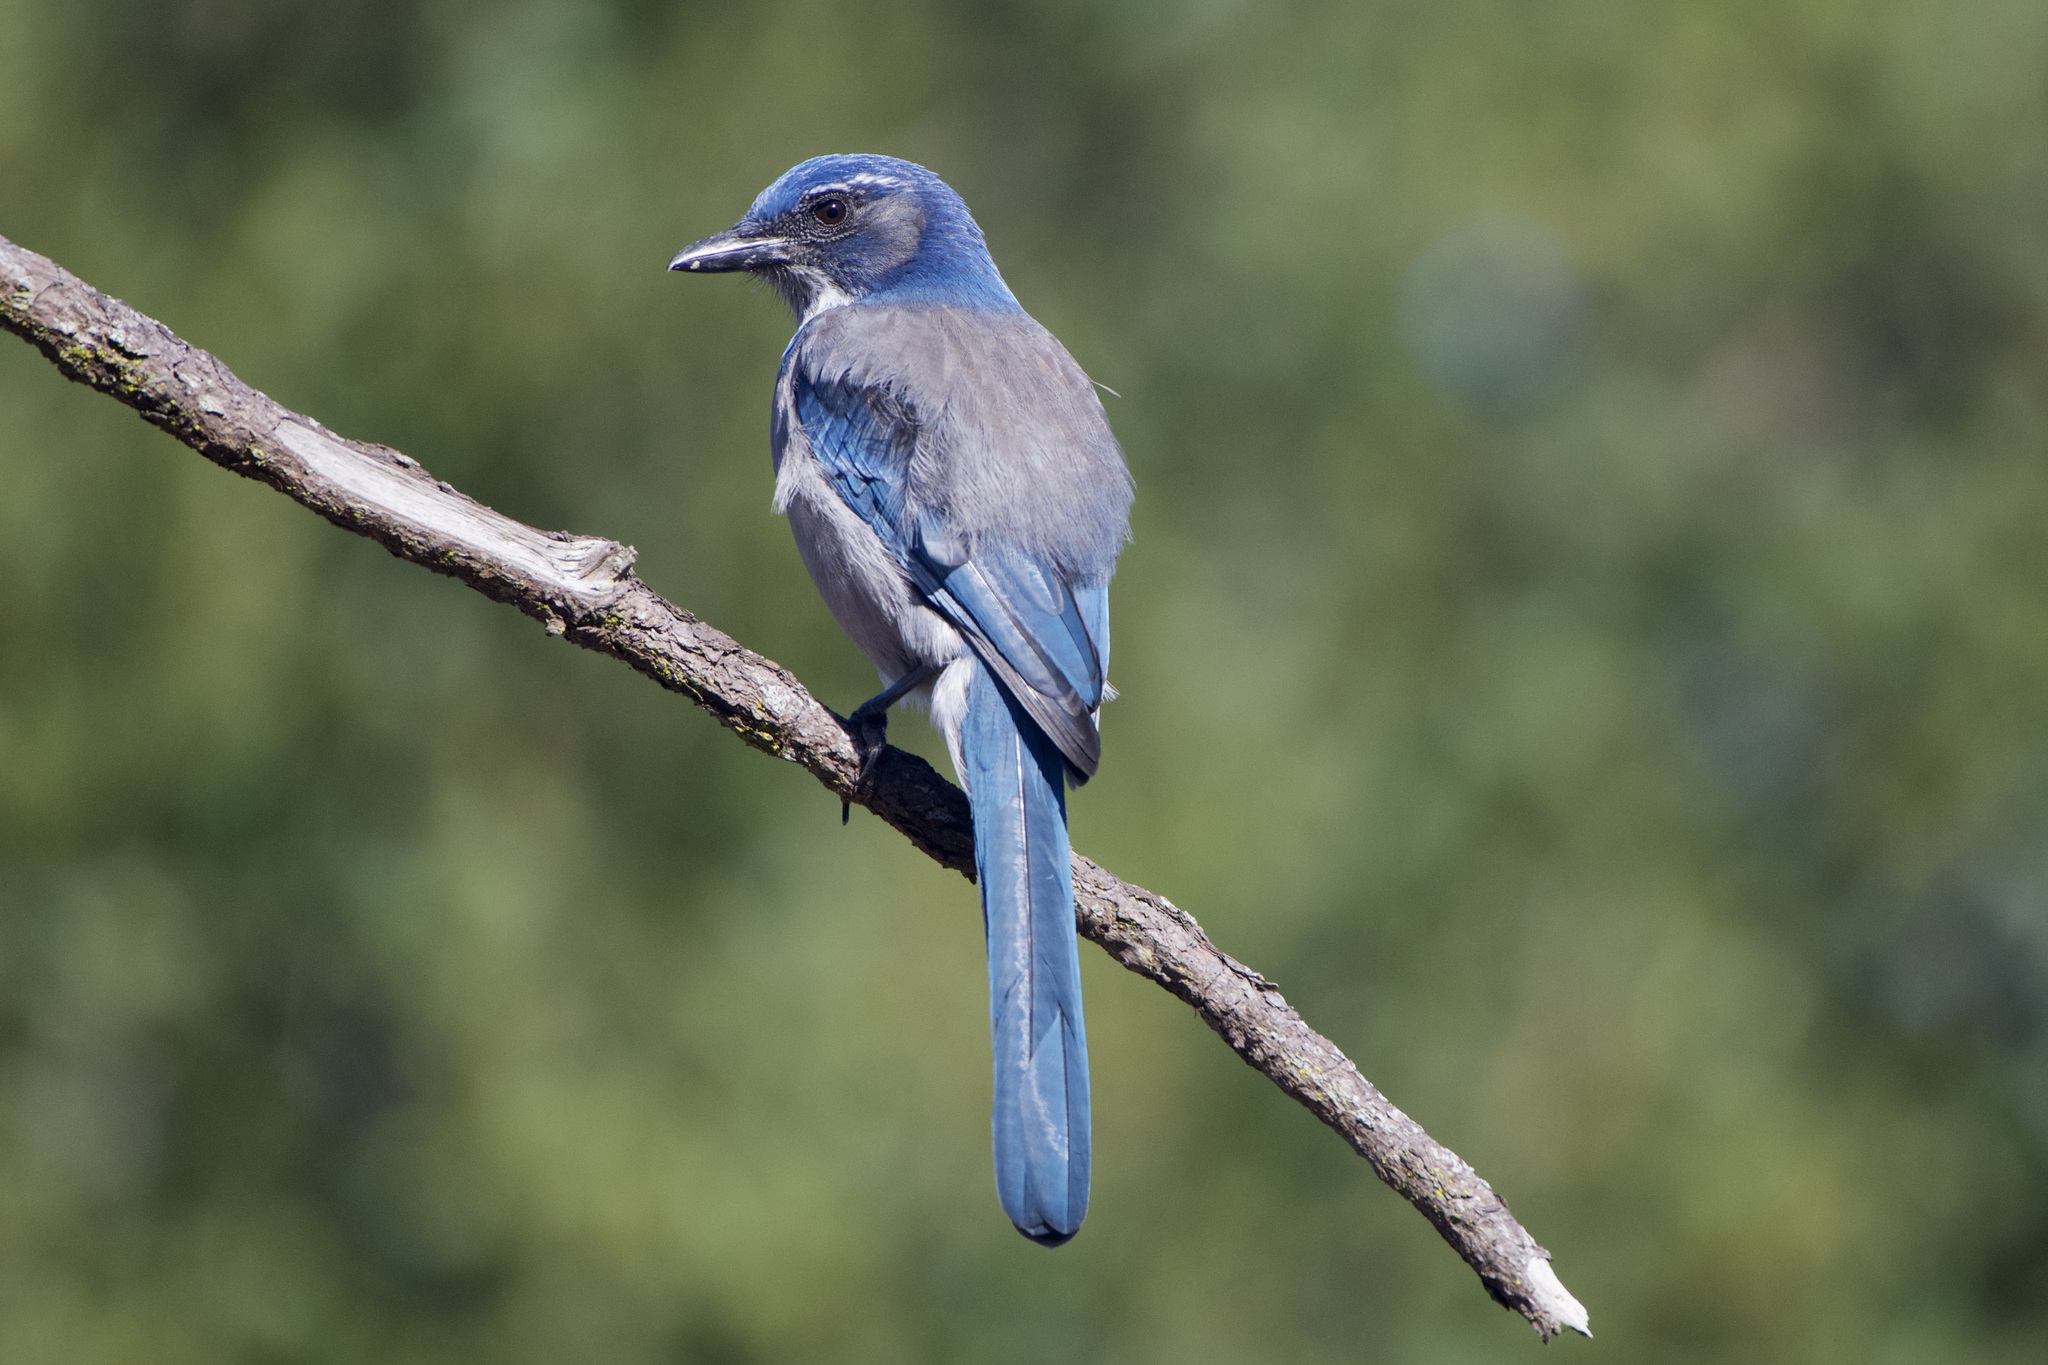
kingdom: Animalia
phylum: Chordata
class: Aves
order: Passeriformes
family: Corvidae
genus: Aphelocoma
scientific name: Aphelocoma californica
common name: California scrub-jay
